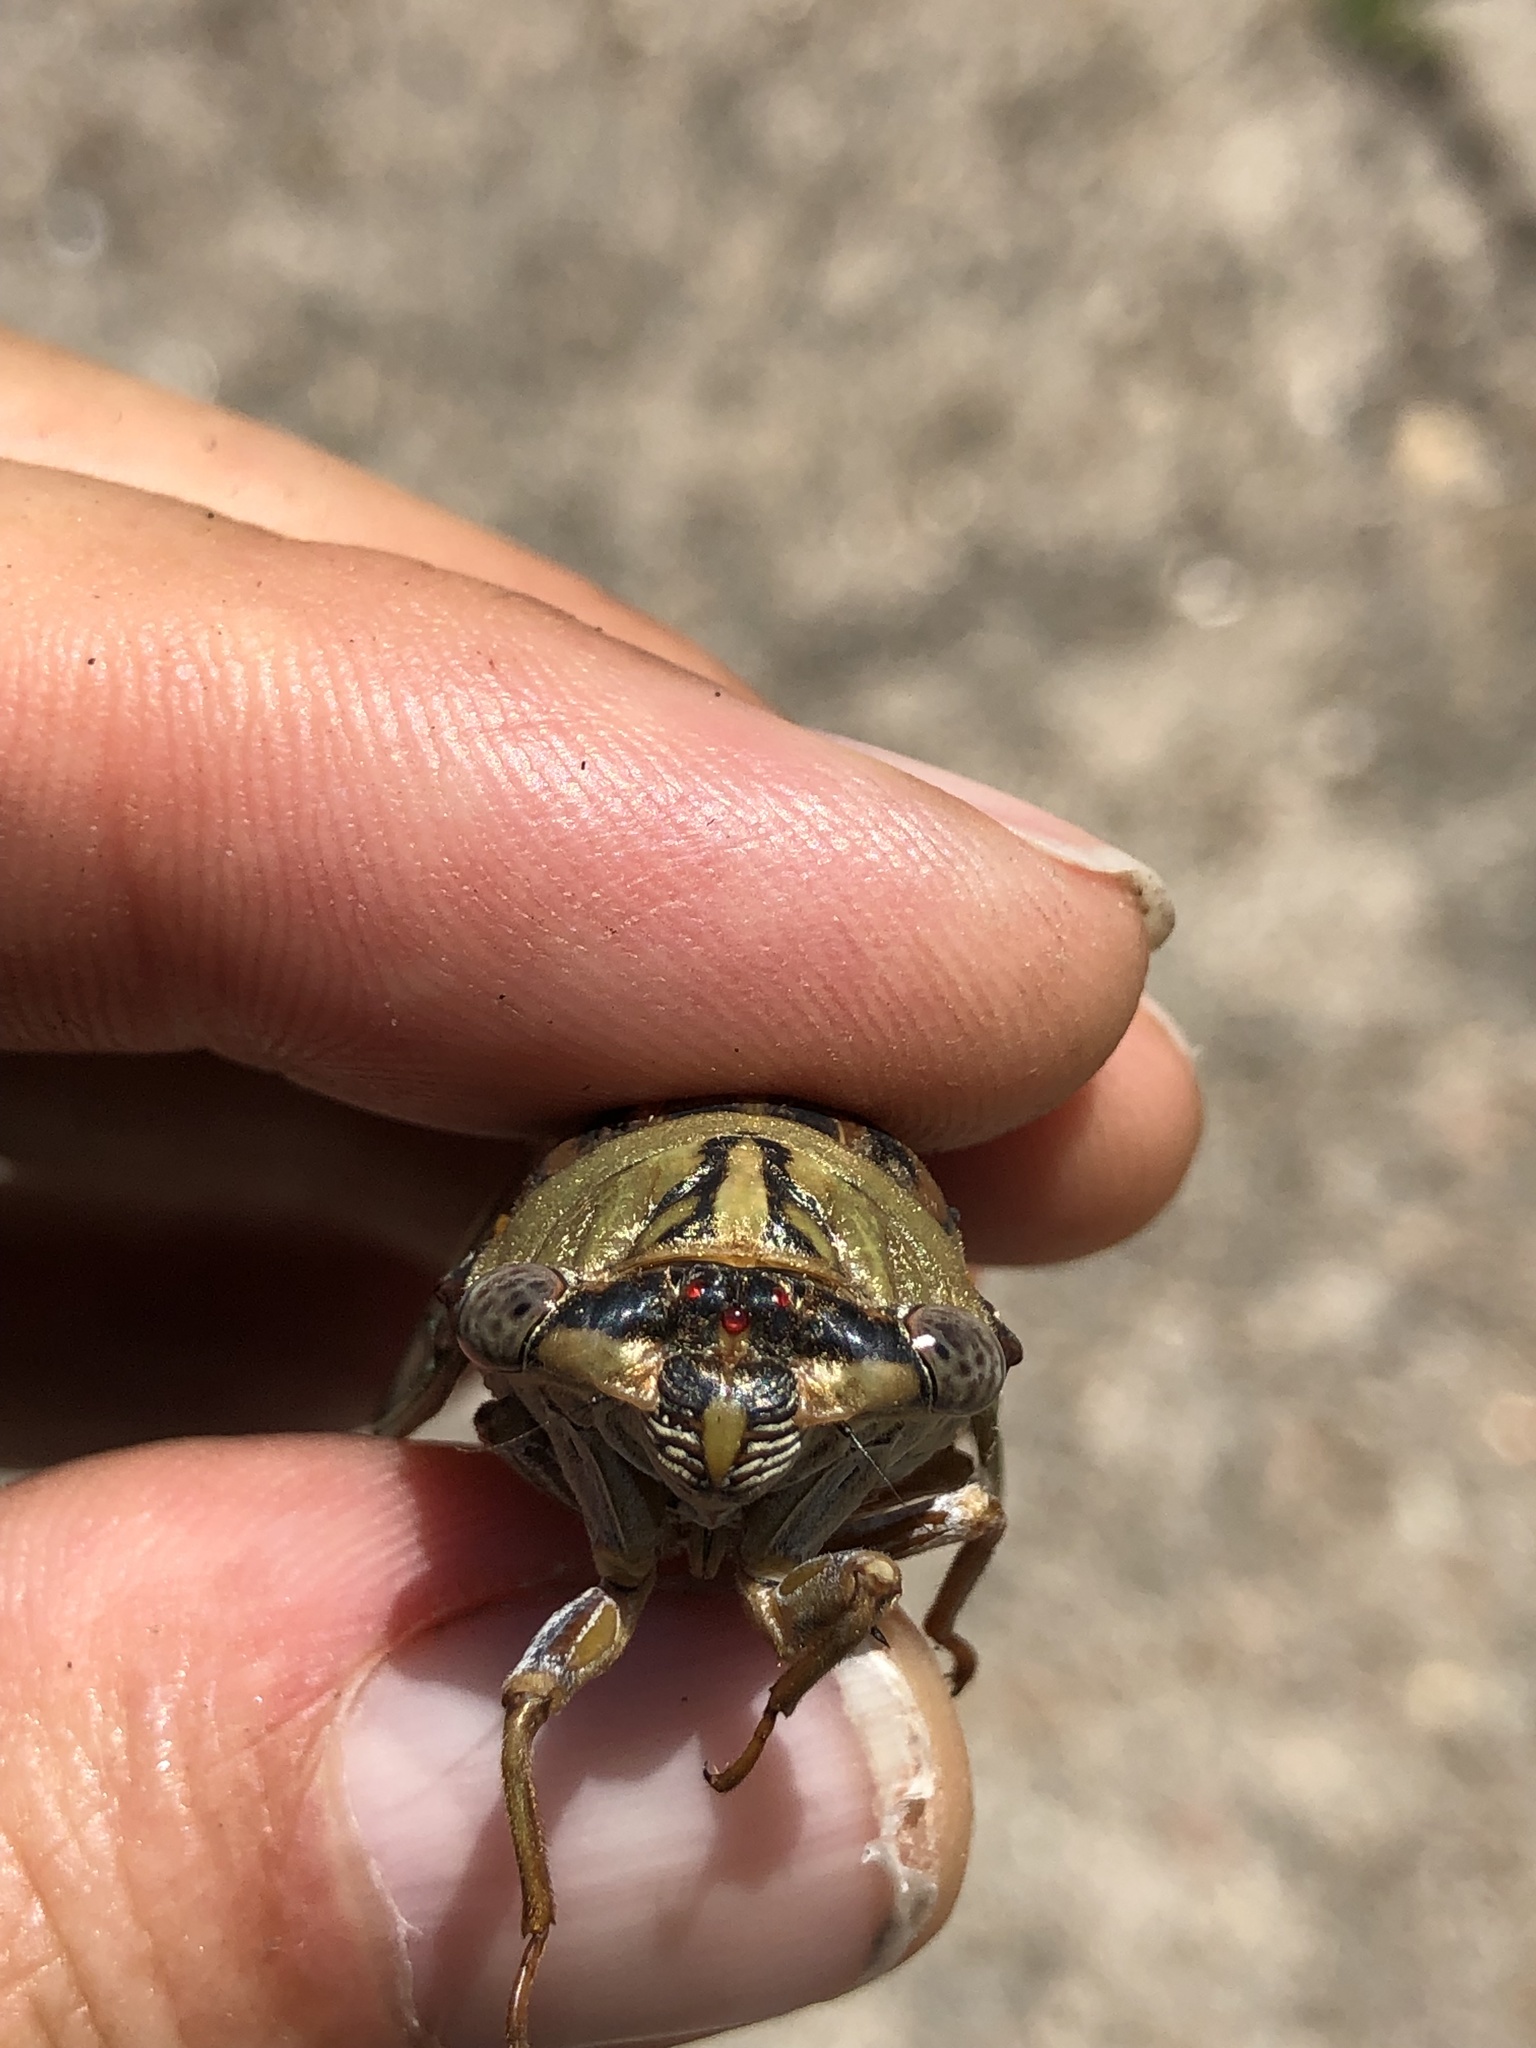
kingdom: Animalia
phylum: Arthropoda
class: Insecta
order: Hemiptera
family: Cicadidae
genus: Megatibicen
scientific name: Megatibicen resh
